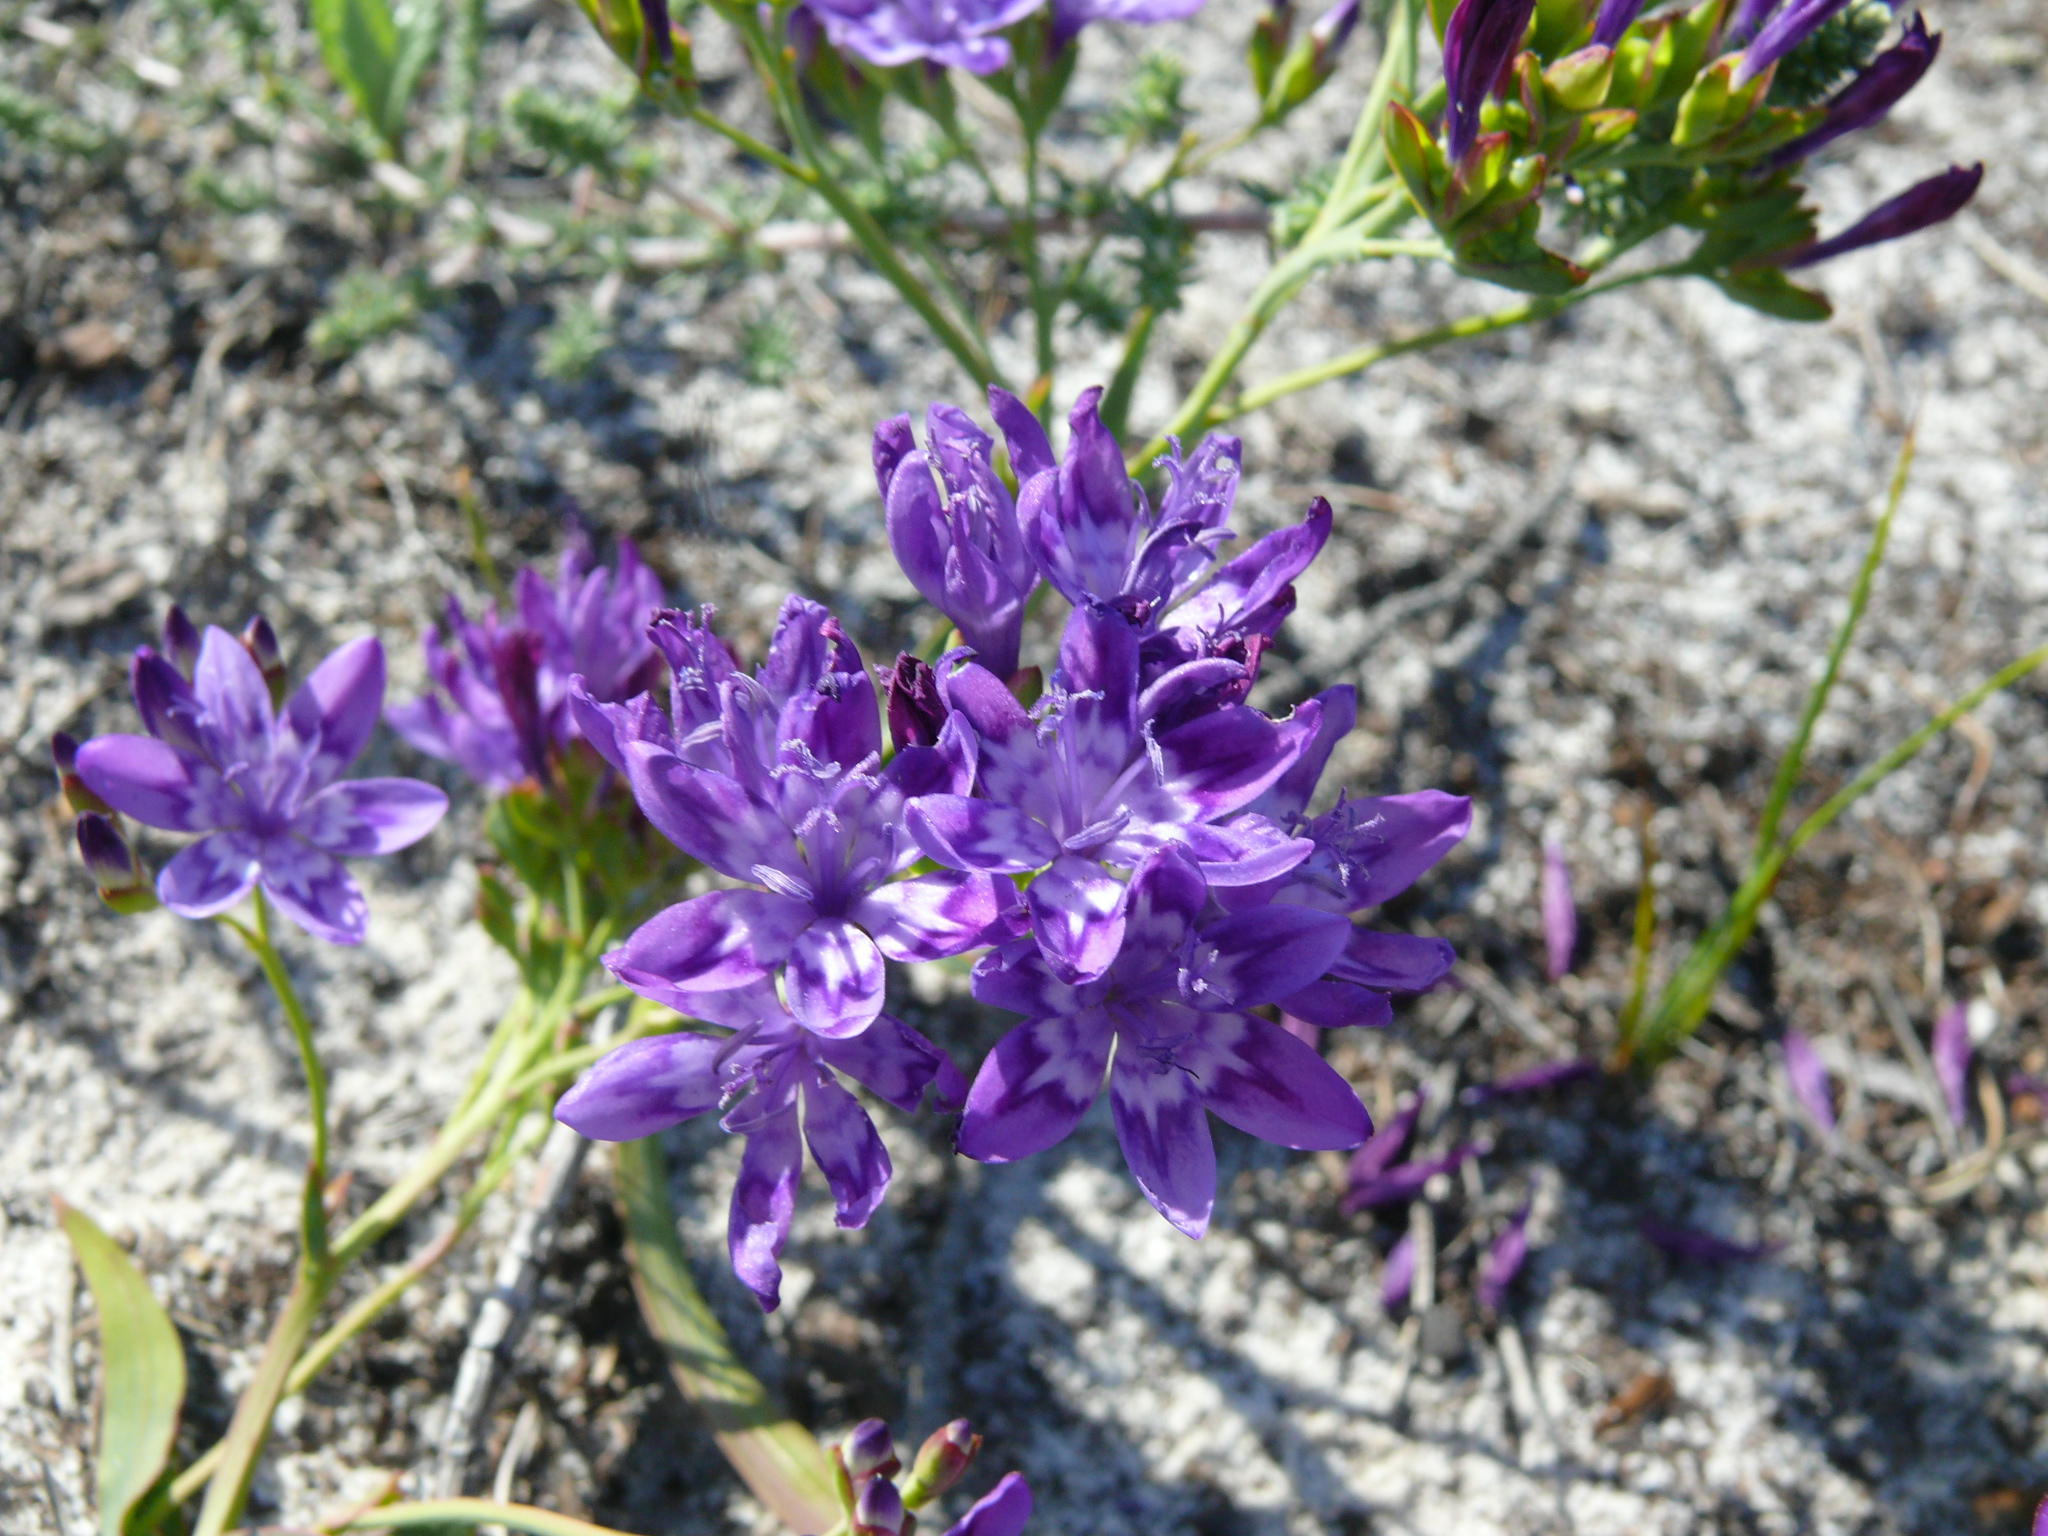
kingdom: Plantae
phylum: Tracheophyta
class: Liliopsida
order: Asparagales
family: Iridaceae
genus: Codonorhiza
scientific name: Codonorhiza corymbosa
